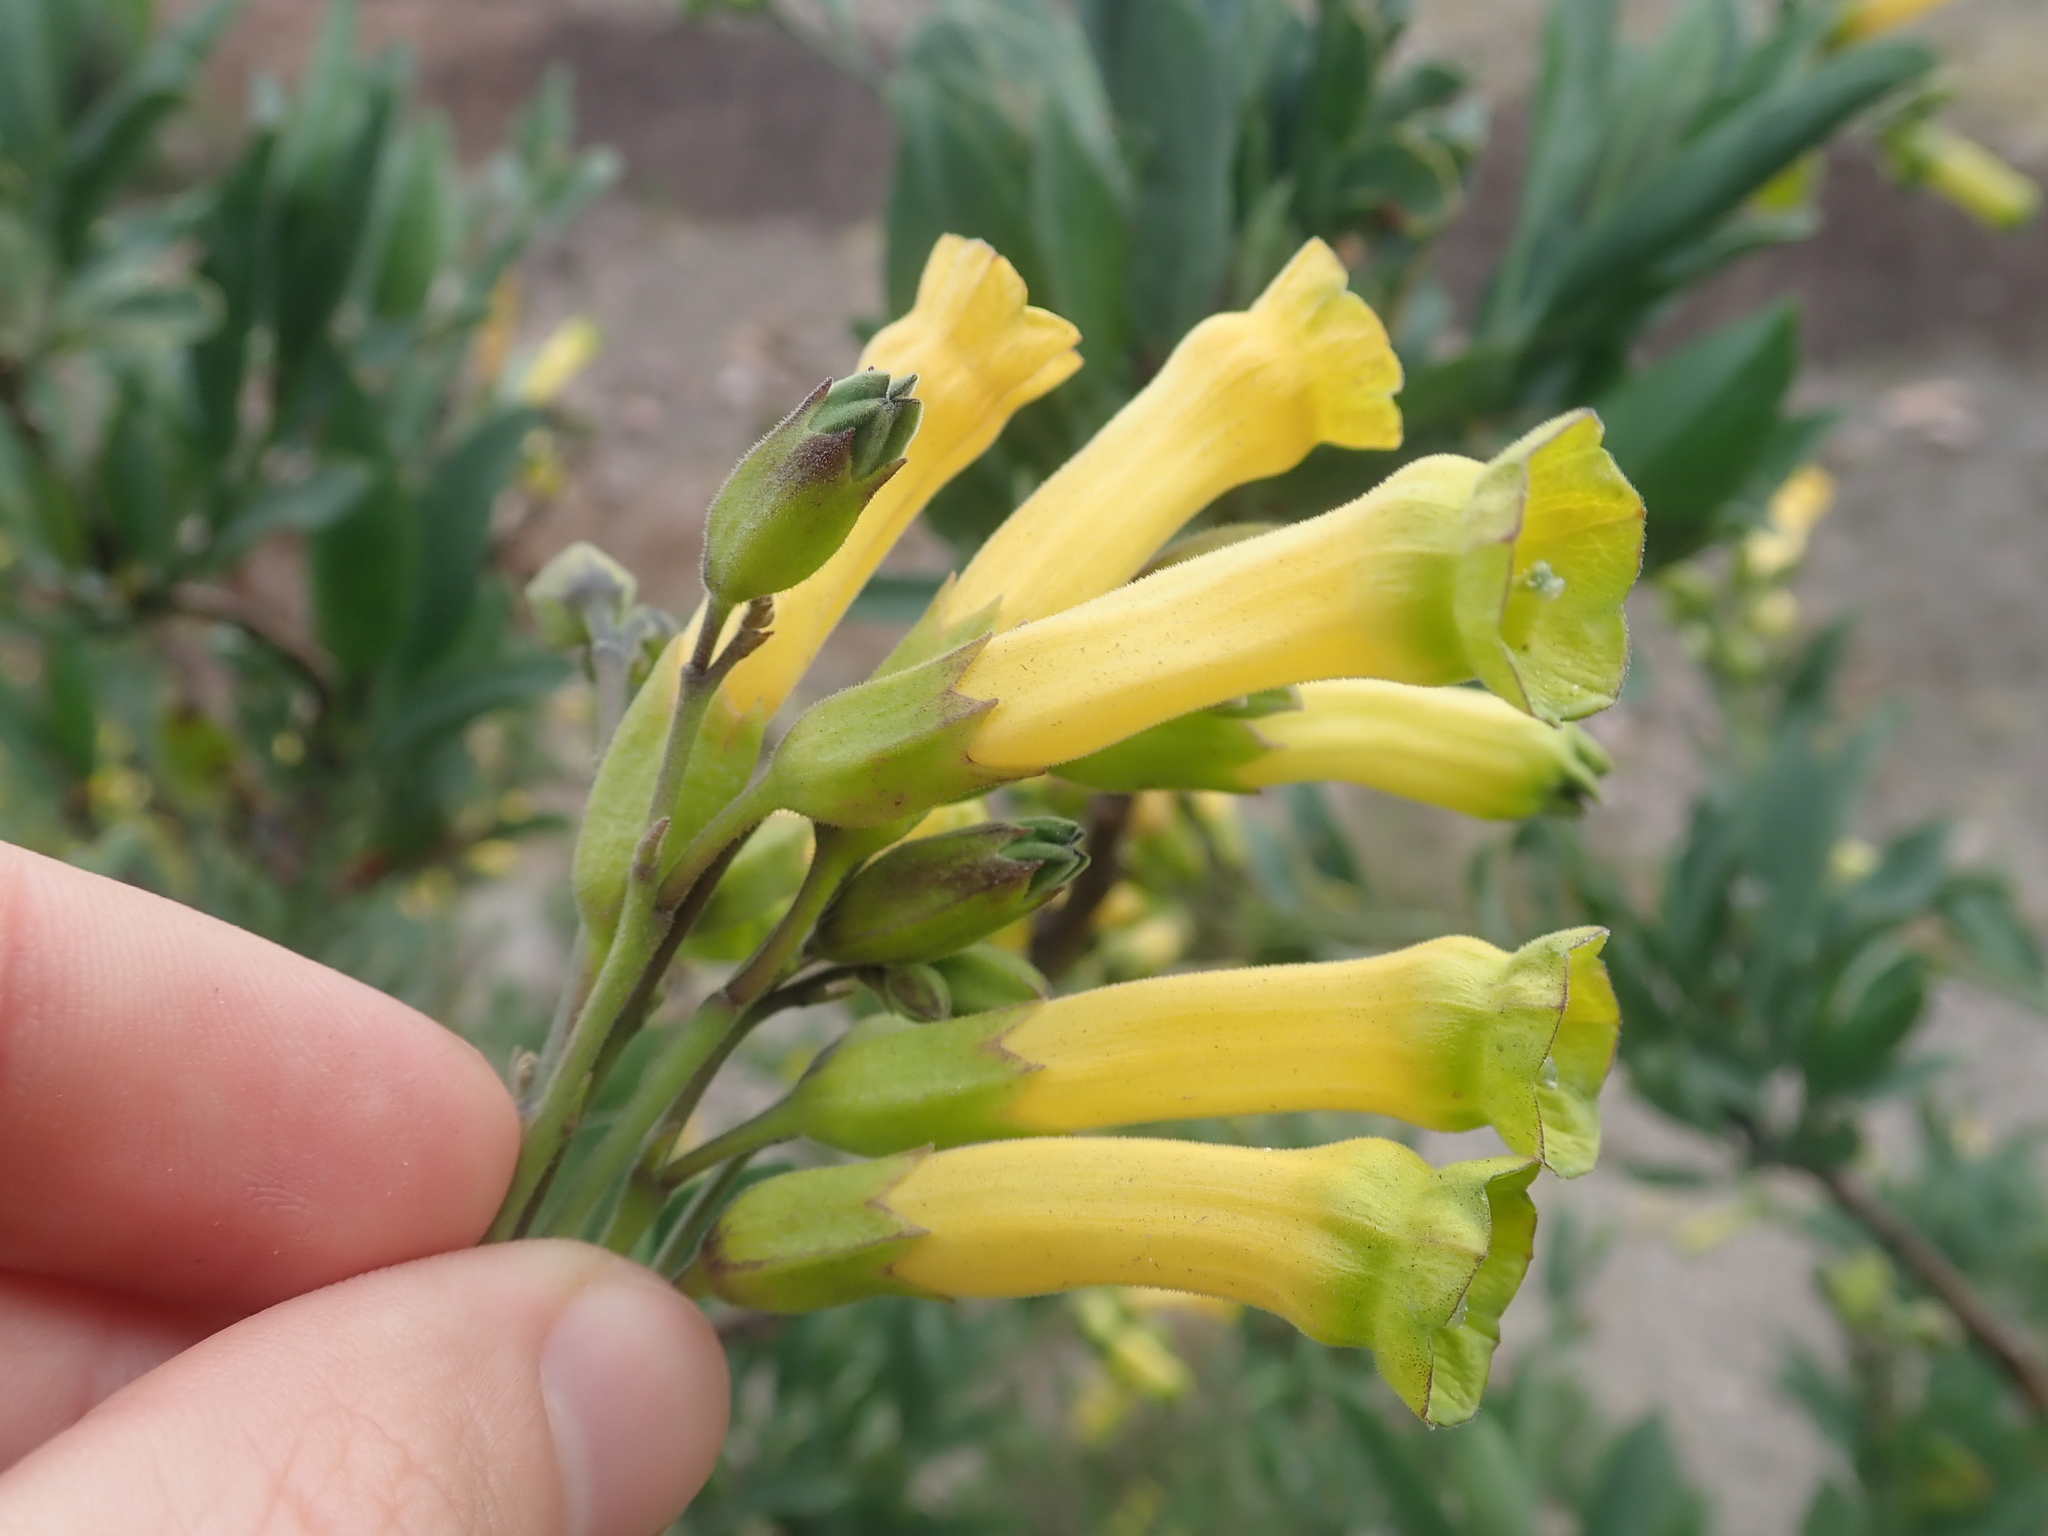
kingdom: Plantae
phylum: Tracheophyta
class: Magnoliopsida
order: Solanales
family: Solanaceae
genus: Nicotiana
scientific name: Nicotiana glauca
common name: Tree tobacco
